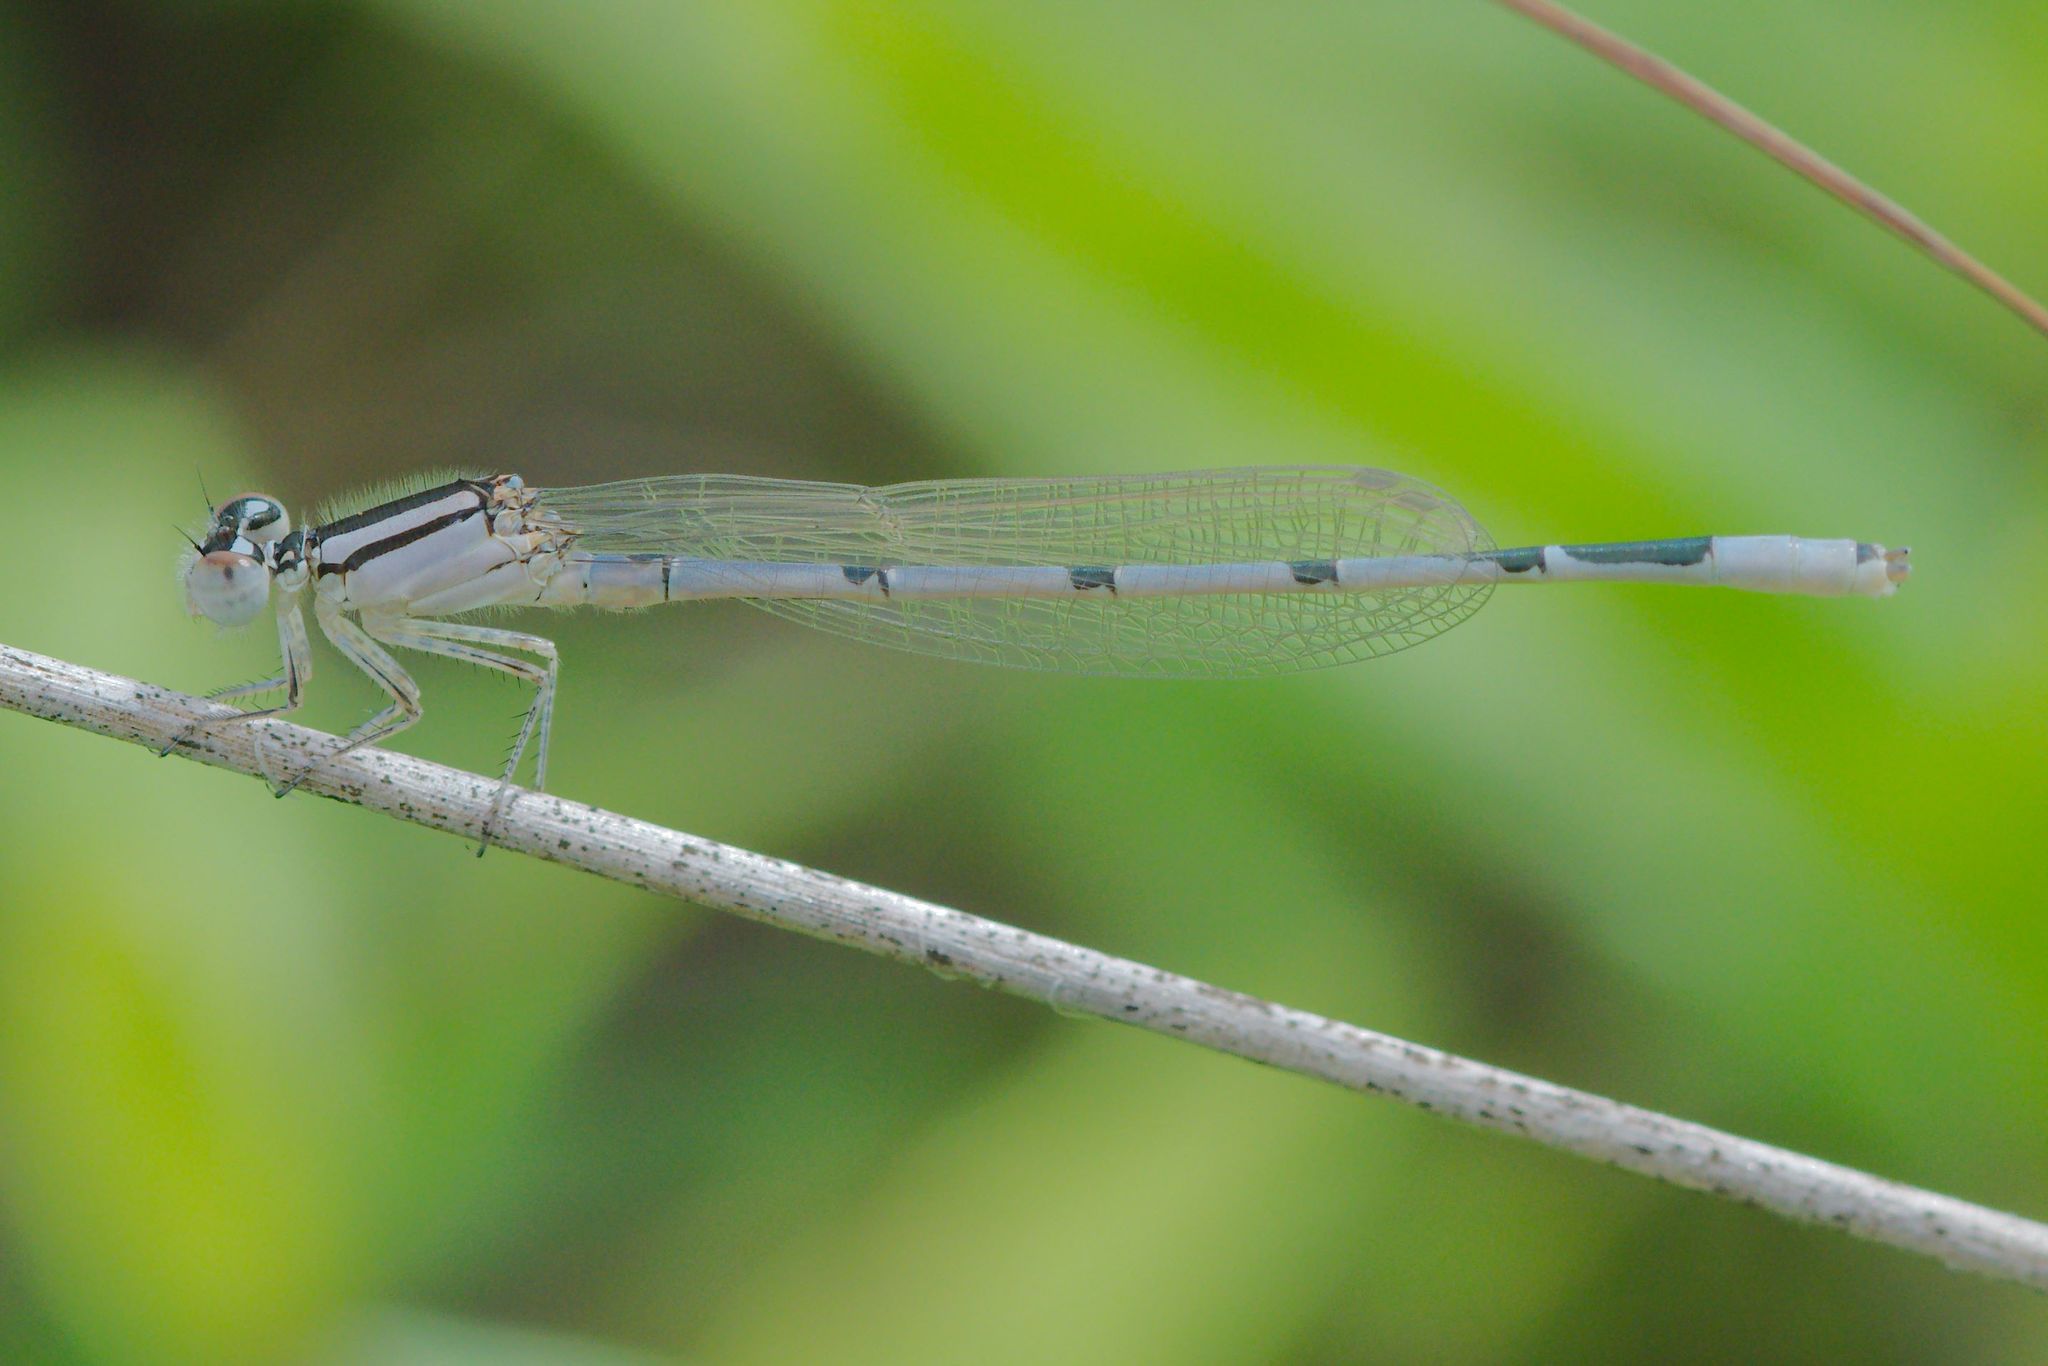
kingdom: Animalia
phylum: Arthropoda
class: Insecta
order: Odonata
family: Coenagrionidae
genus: Enallagma
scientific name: Enallagma civile
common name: Damselfly
